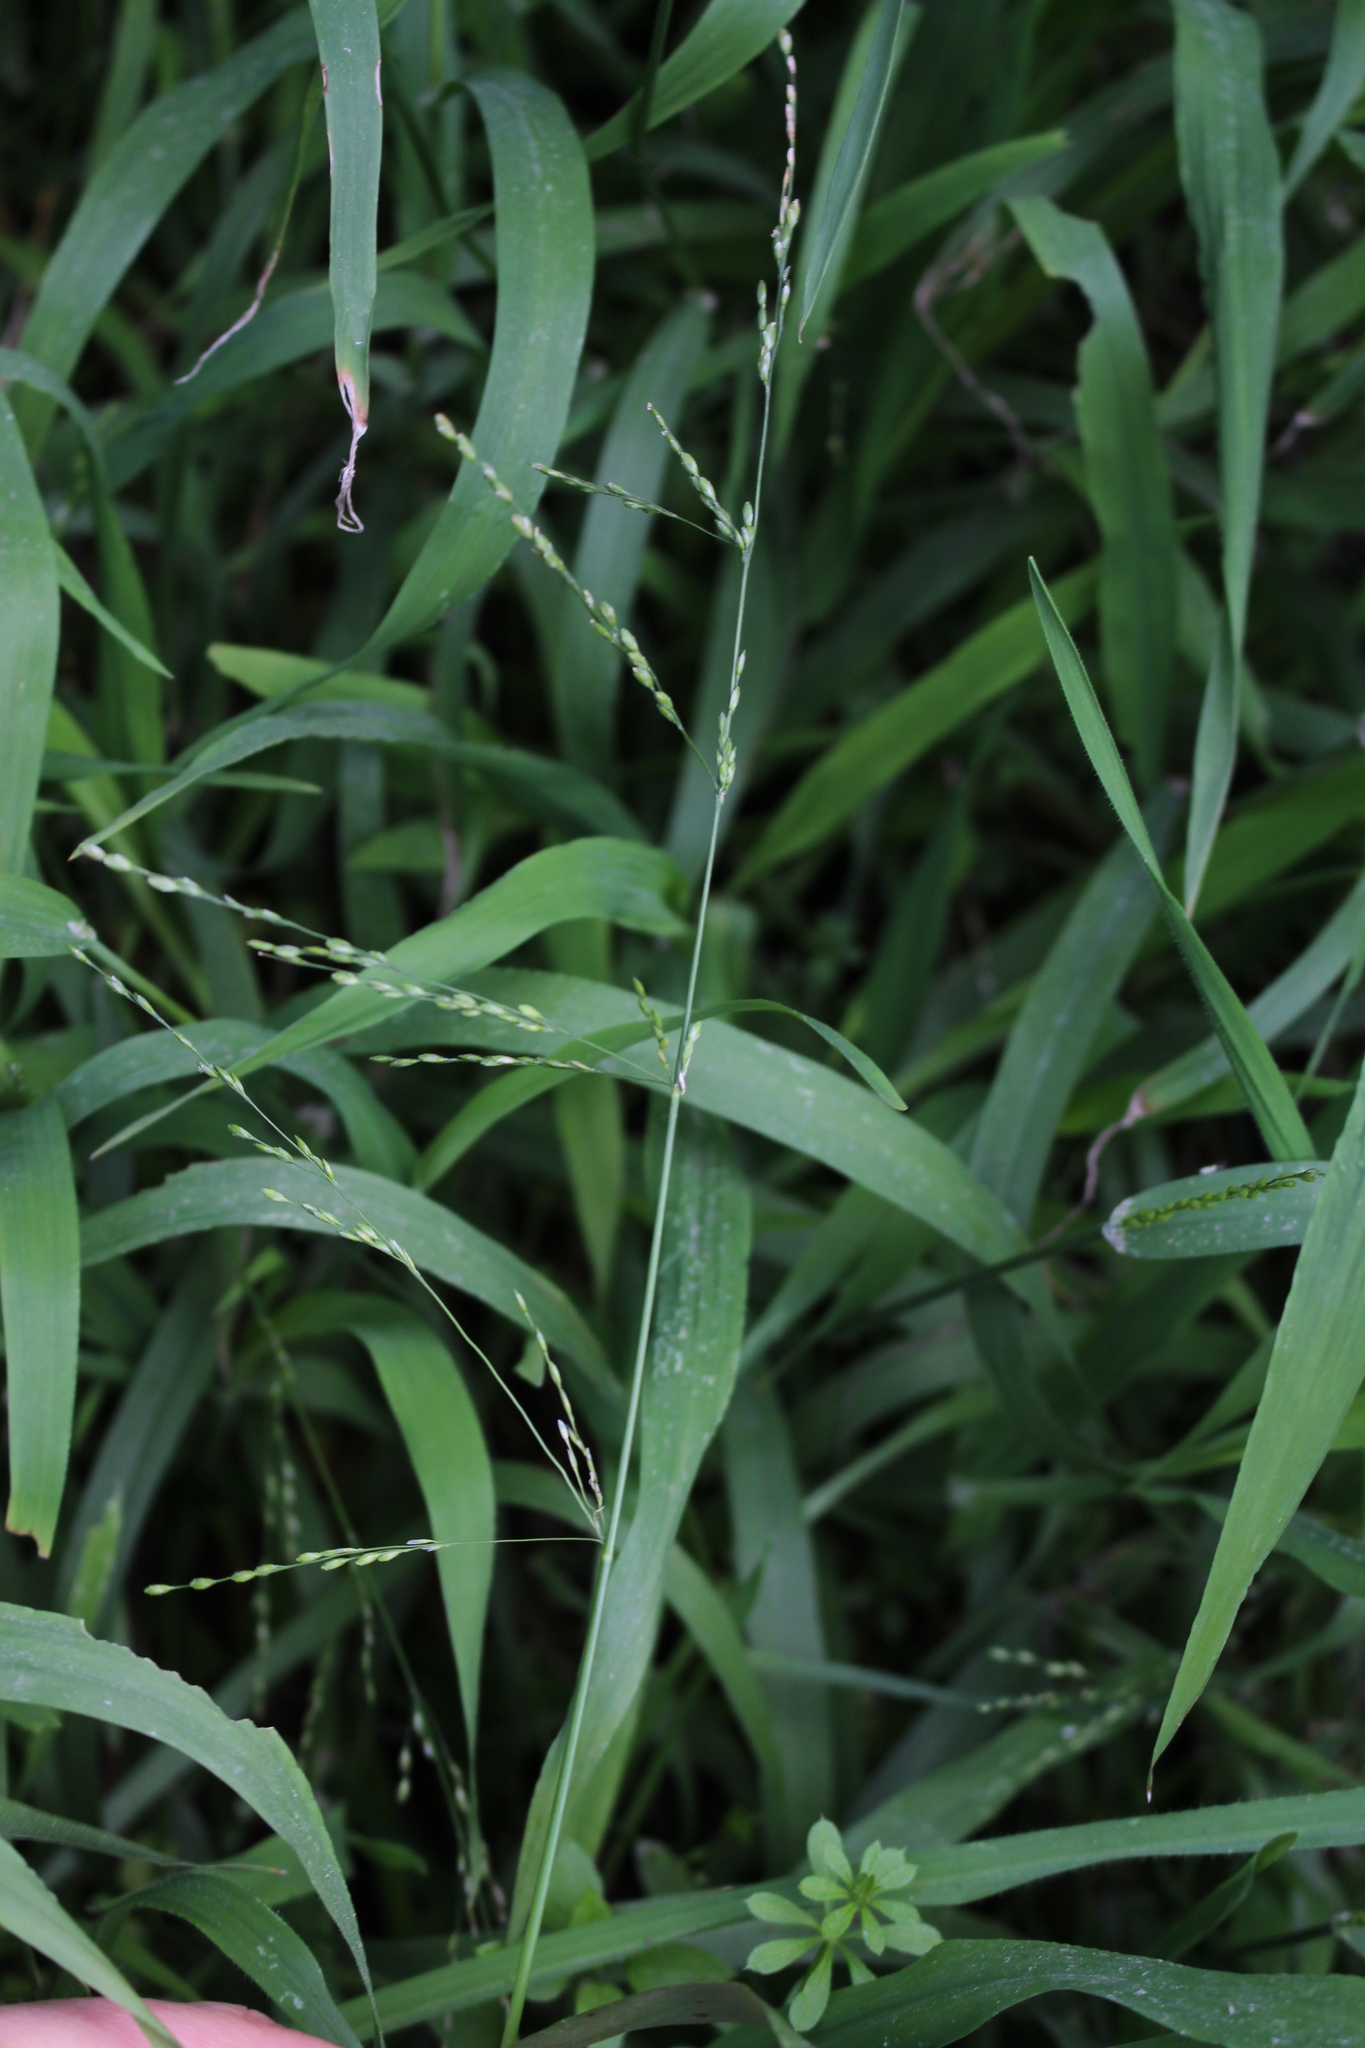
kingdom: Plantae
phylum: Tracheophyta
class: Liliopsida
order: Poales
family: Poaceae
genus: Ehrharta
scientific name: Ehrharta erecta
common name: Panic veldtgrass
